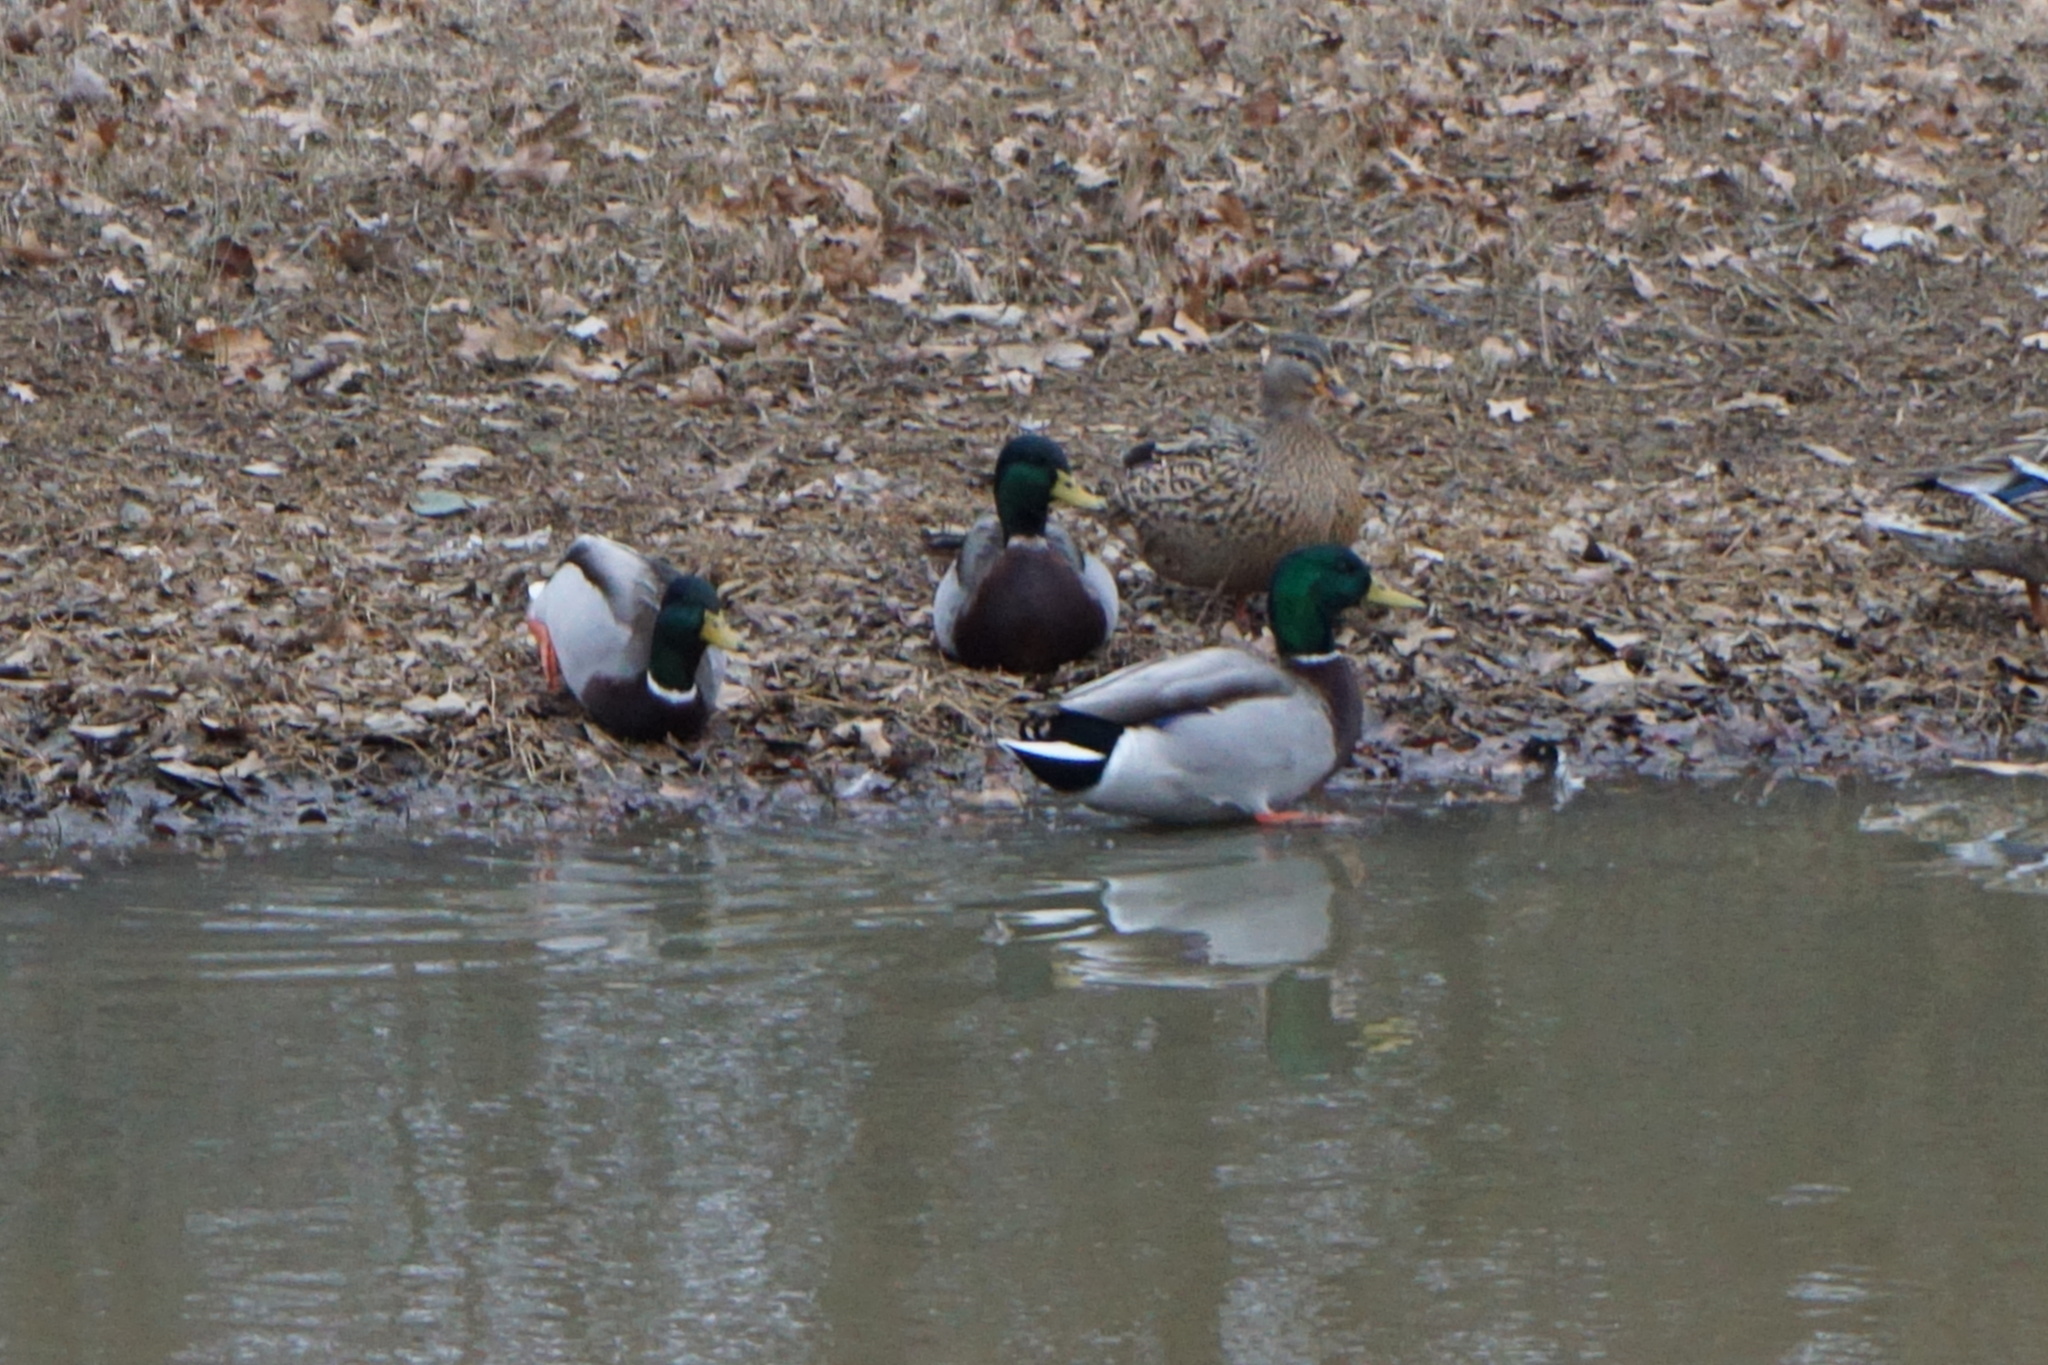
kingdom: Animalia
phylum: Chordata
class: Aves
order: Anseriformes
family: Anatidae
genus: Anas
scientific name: Anas platyrhynchos
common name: Mallard
